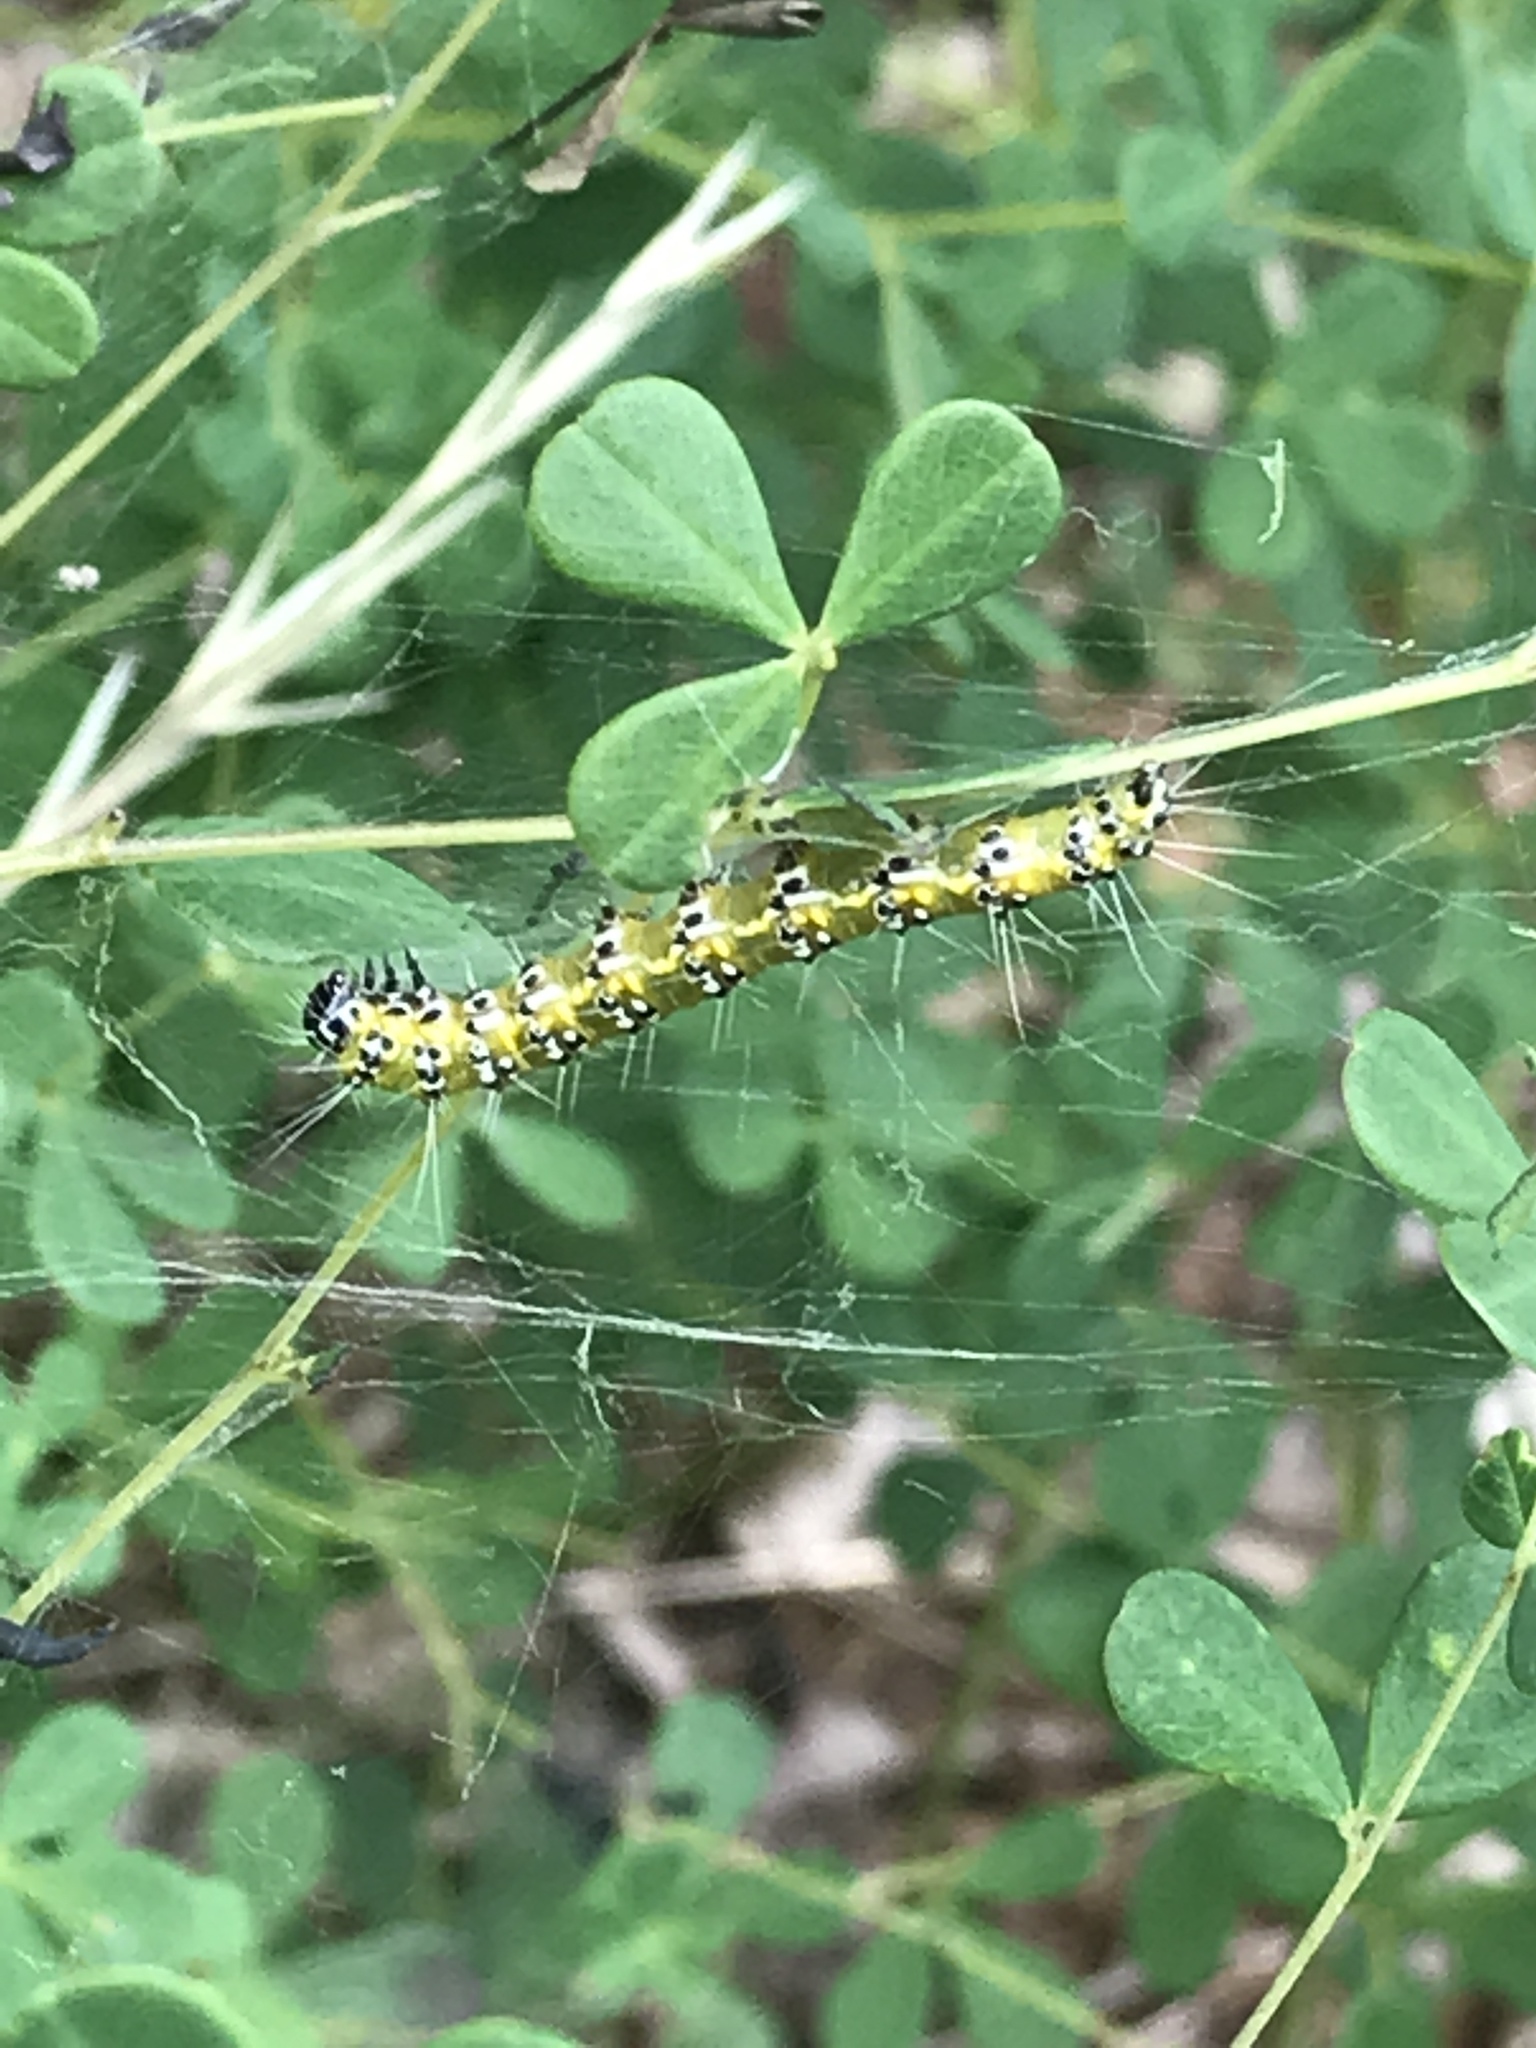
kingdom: Animalia
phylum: Arthropoda
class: Insecta
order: Lepidoptera
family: Crambidae
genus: Uresiphita
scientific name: Uresiphita reversalis
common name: Genista broom moth
